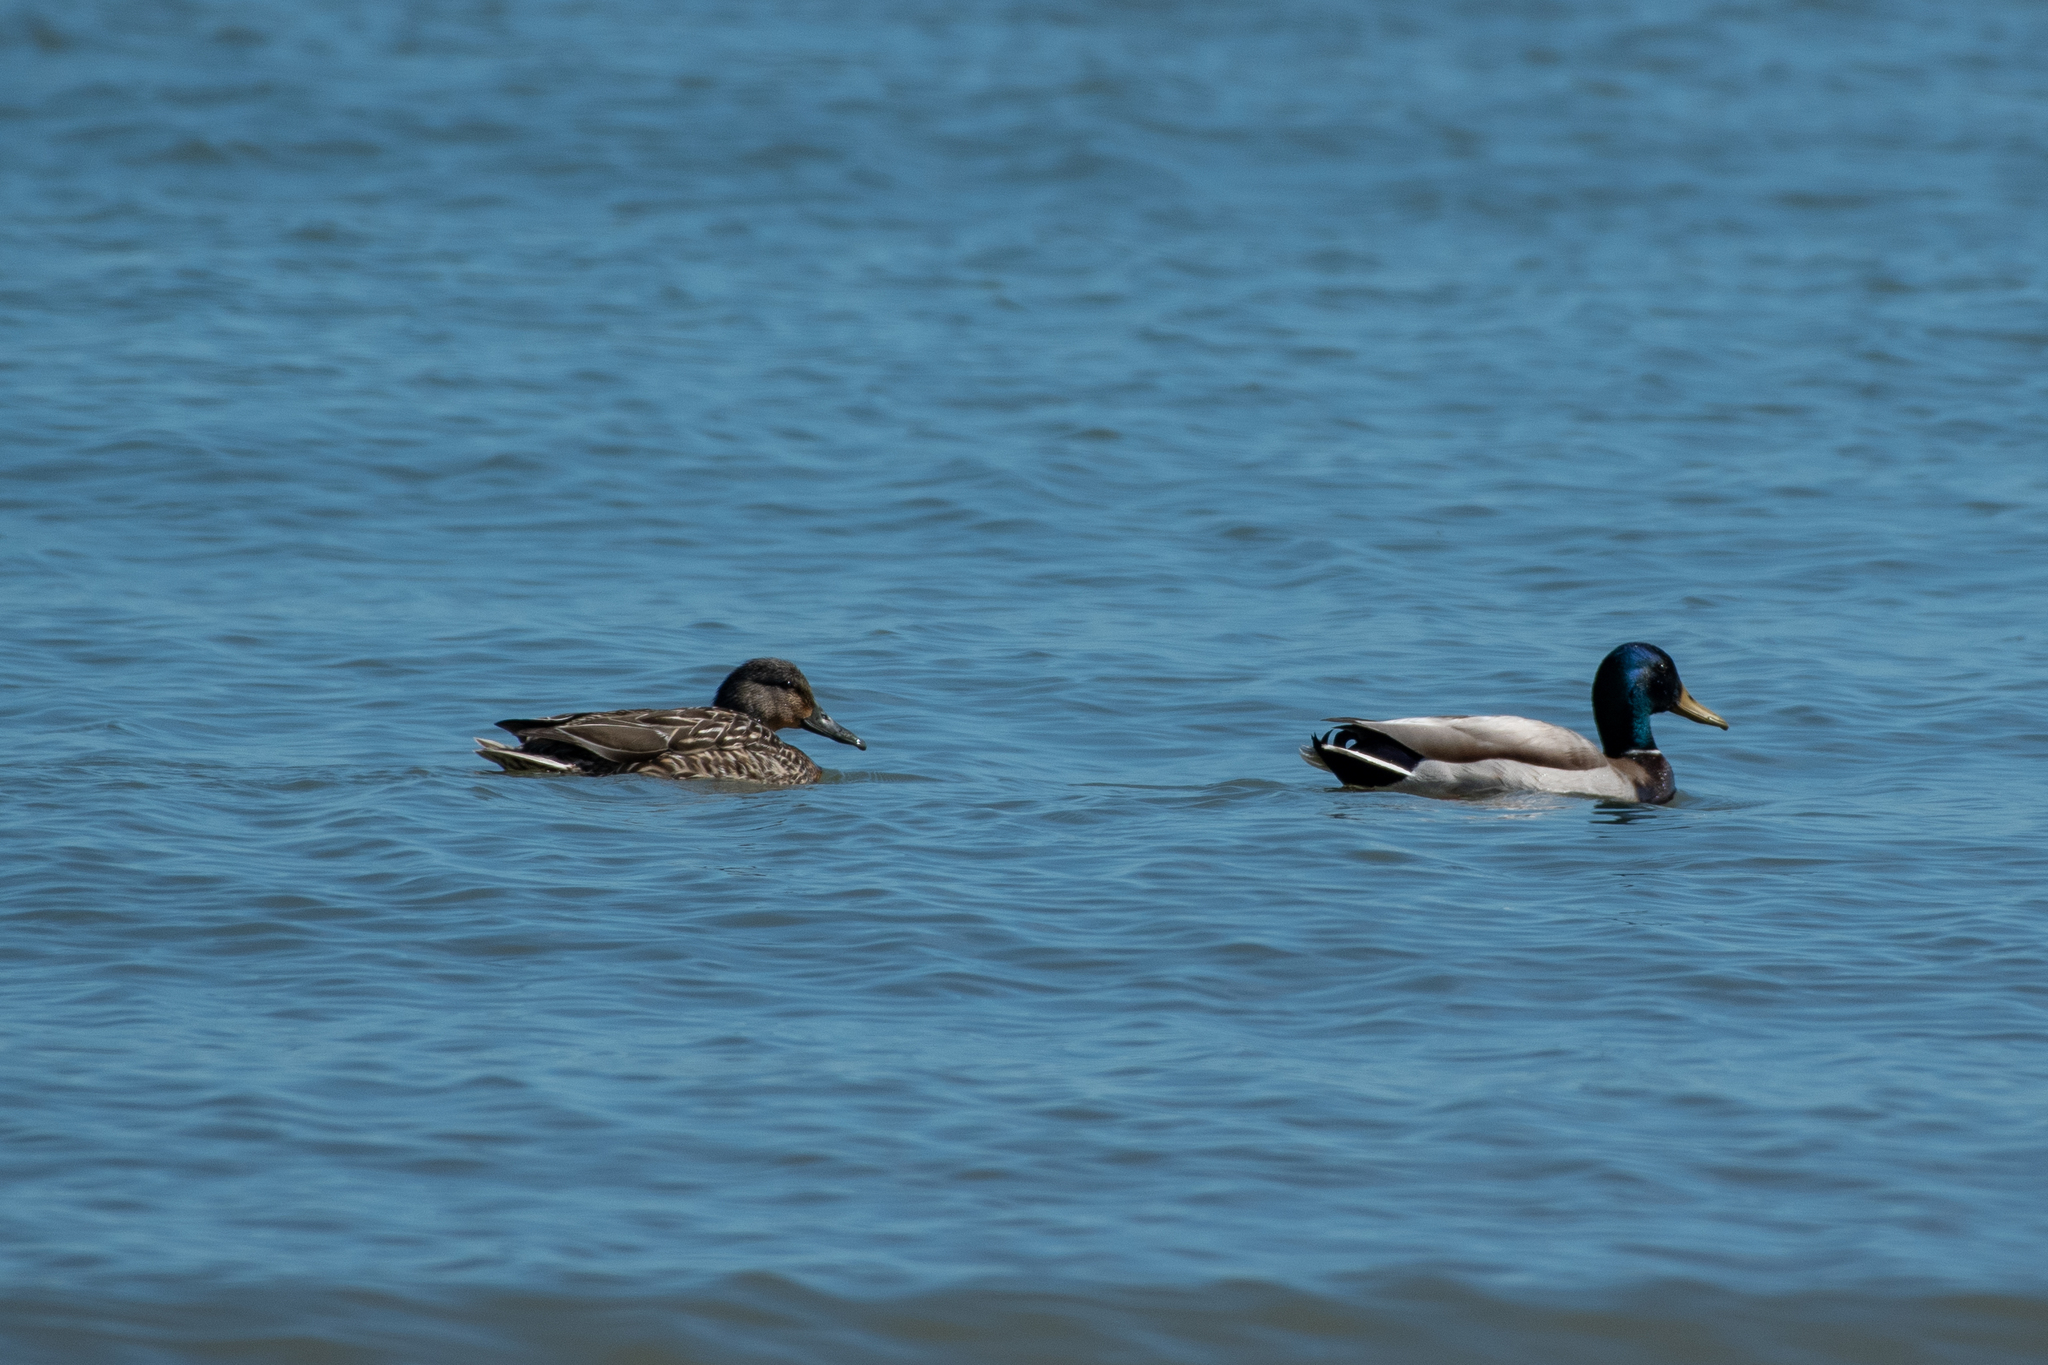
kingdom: Animalia
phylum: Chordata
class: Aves
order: Anseriformes
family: Anatidae
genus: Anas
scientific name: Anas platyrhynchos
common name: Mallard
